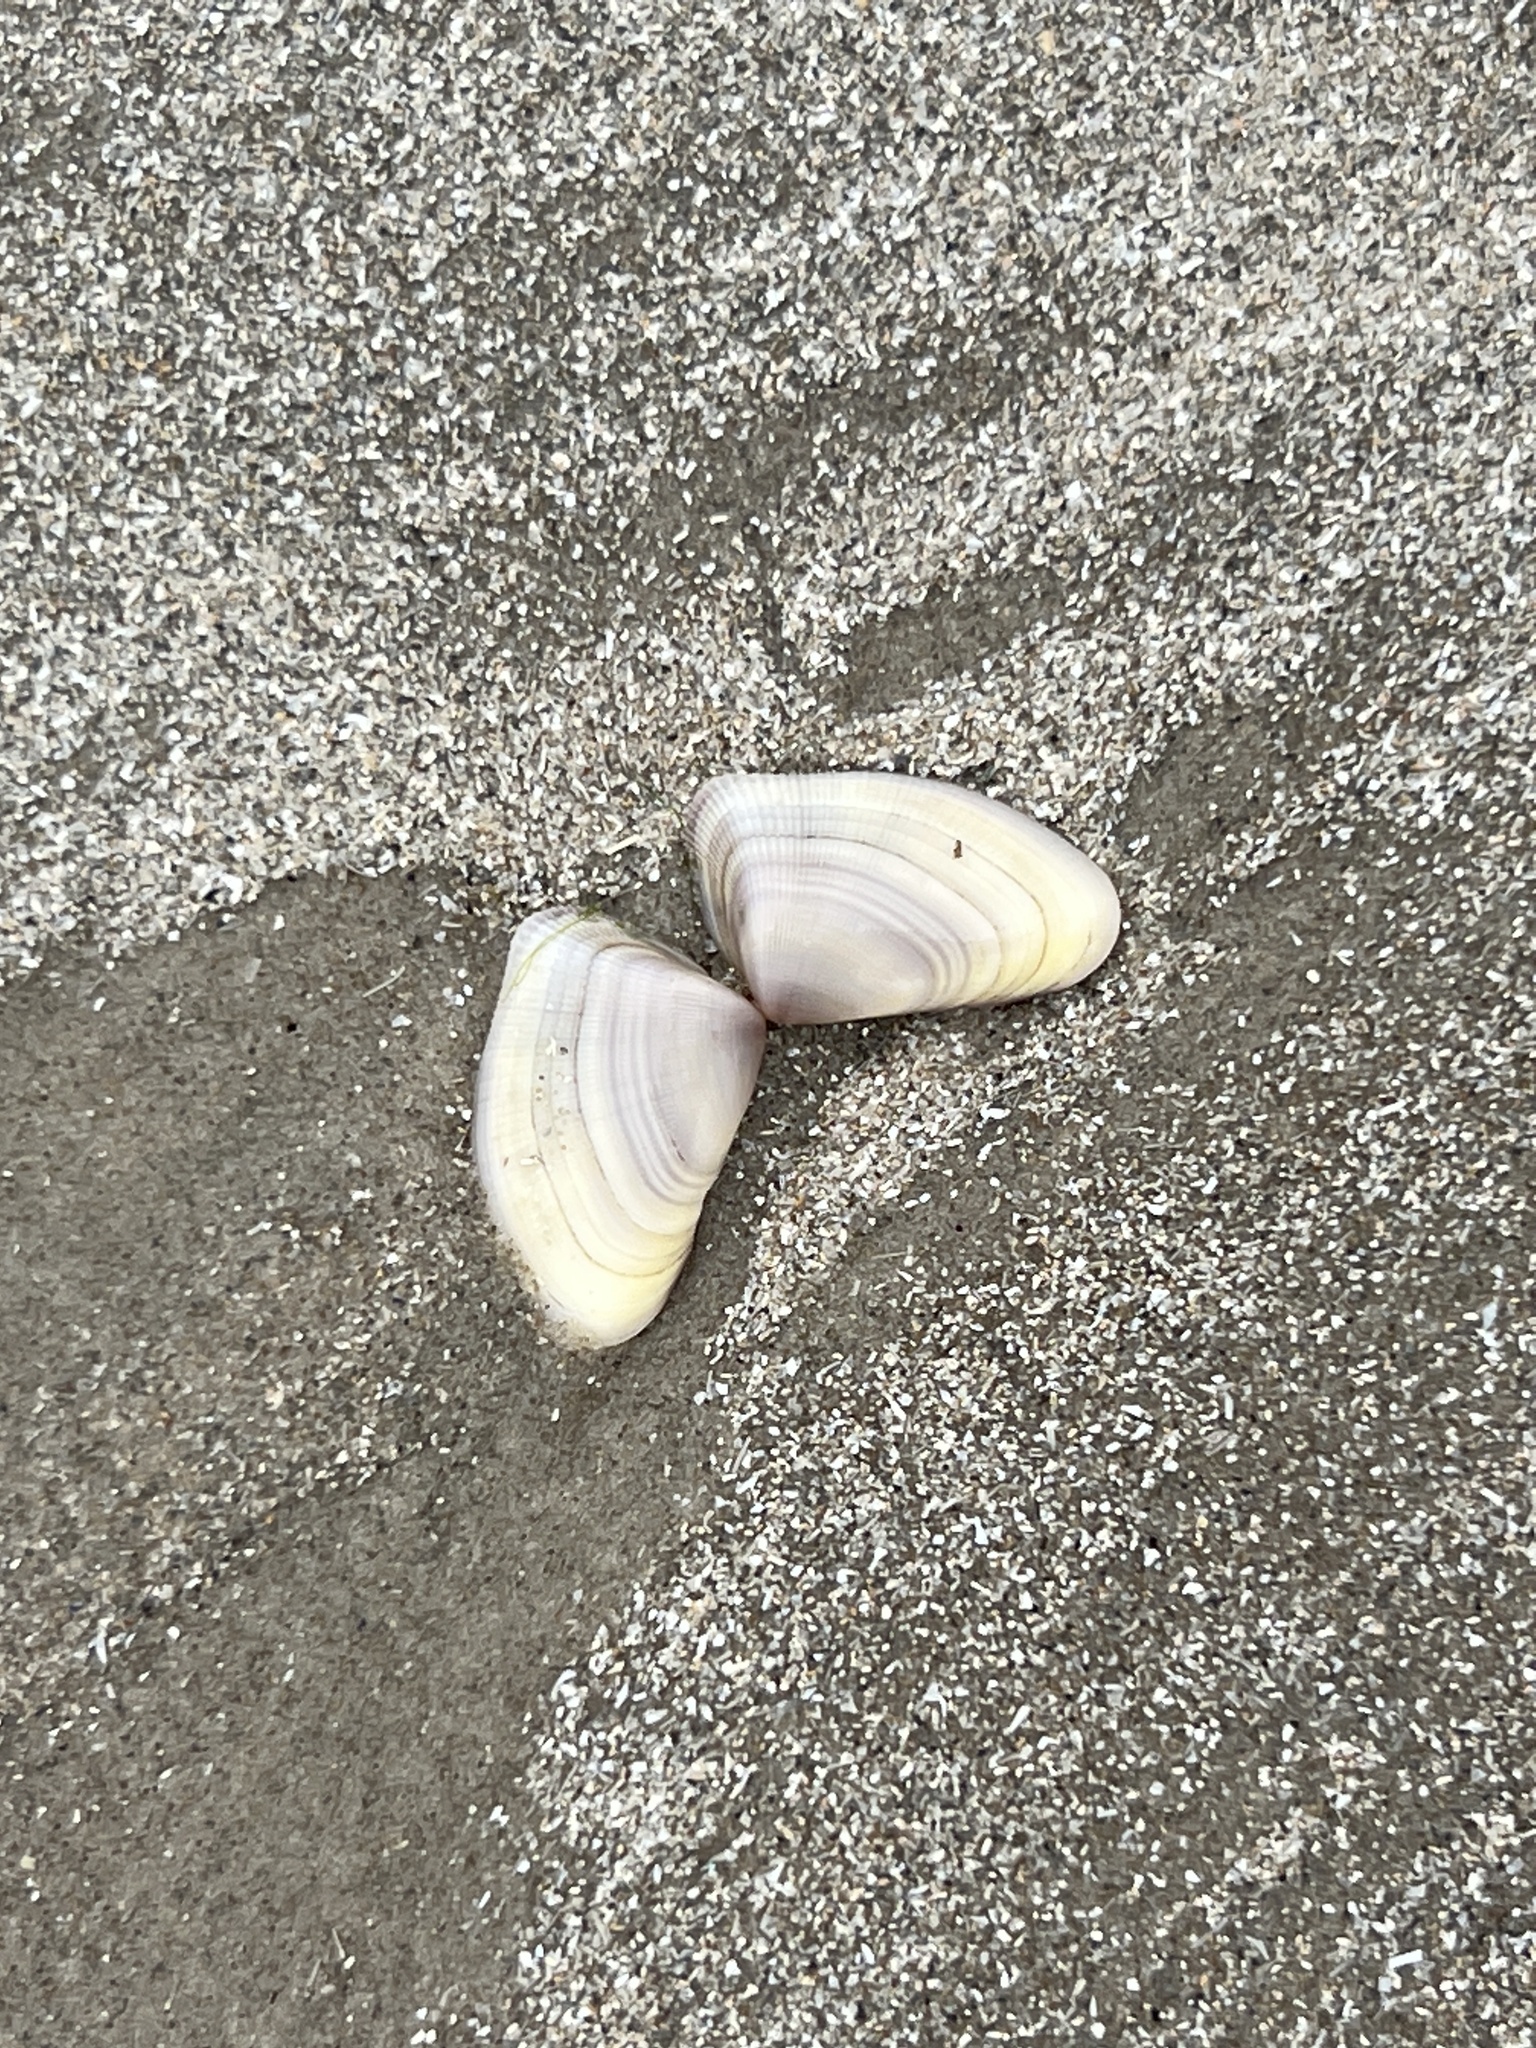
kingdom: Animalia
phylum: Mollusca
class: Bivalvia
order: Cardiida
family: Donacidae
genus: Donax
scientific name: Donax variabilis
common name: Butterfly shell
